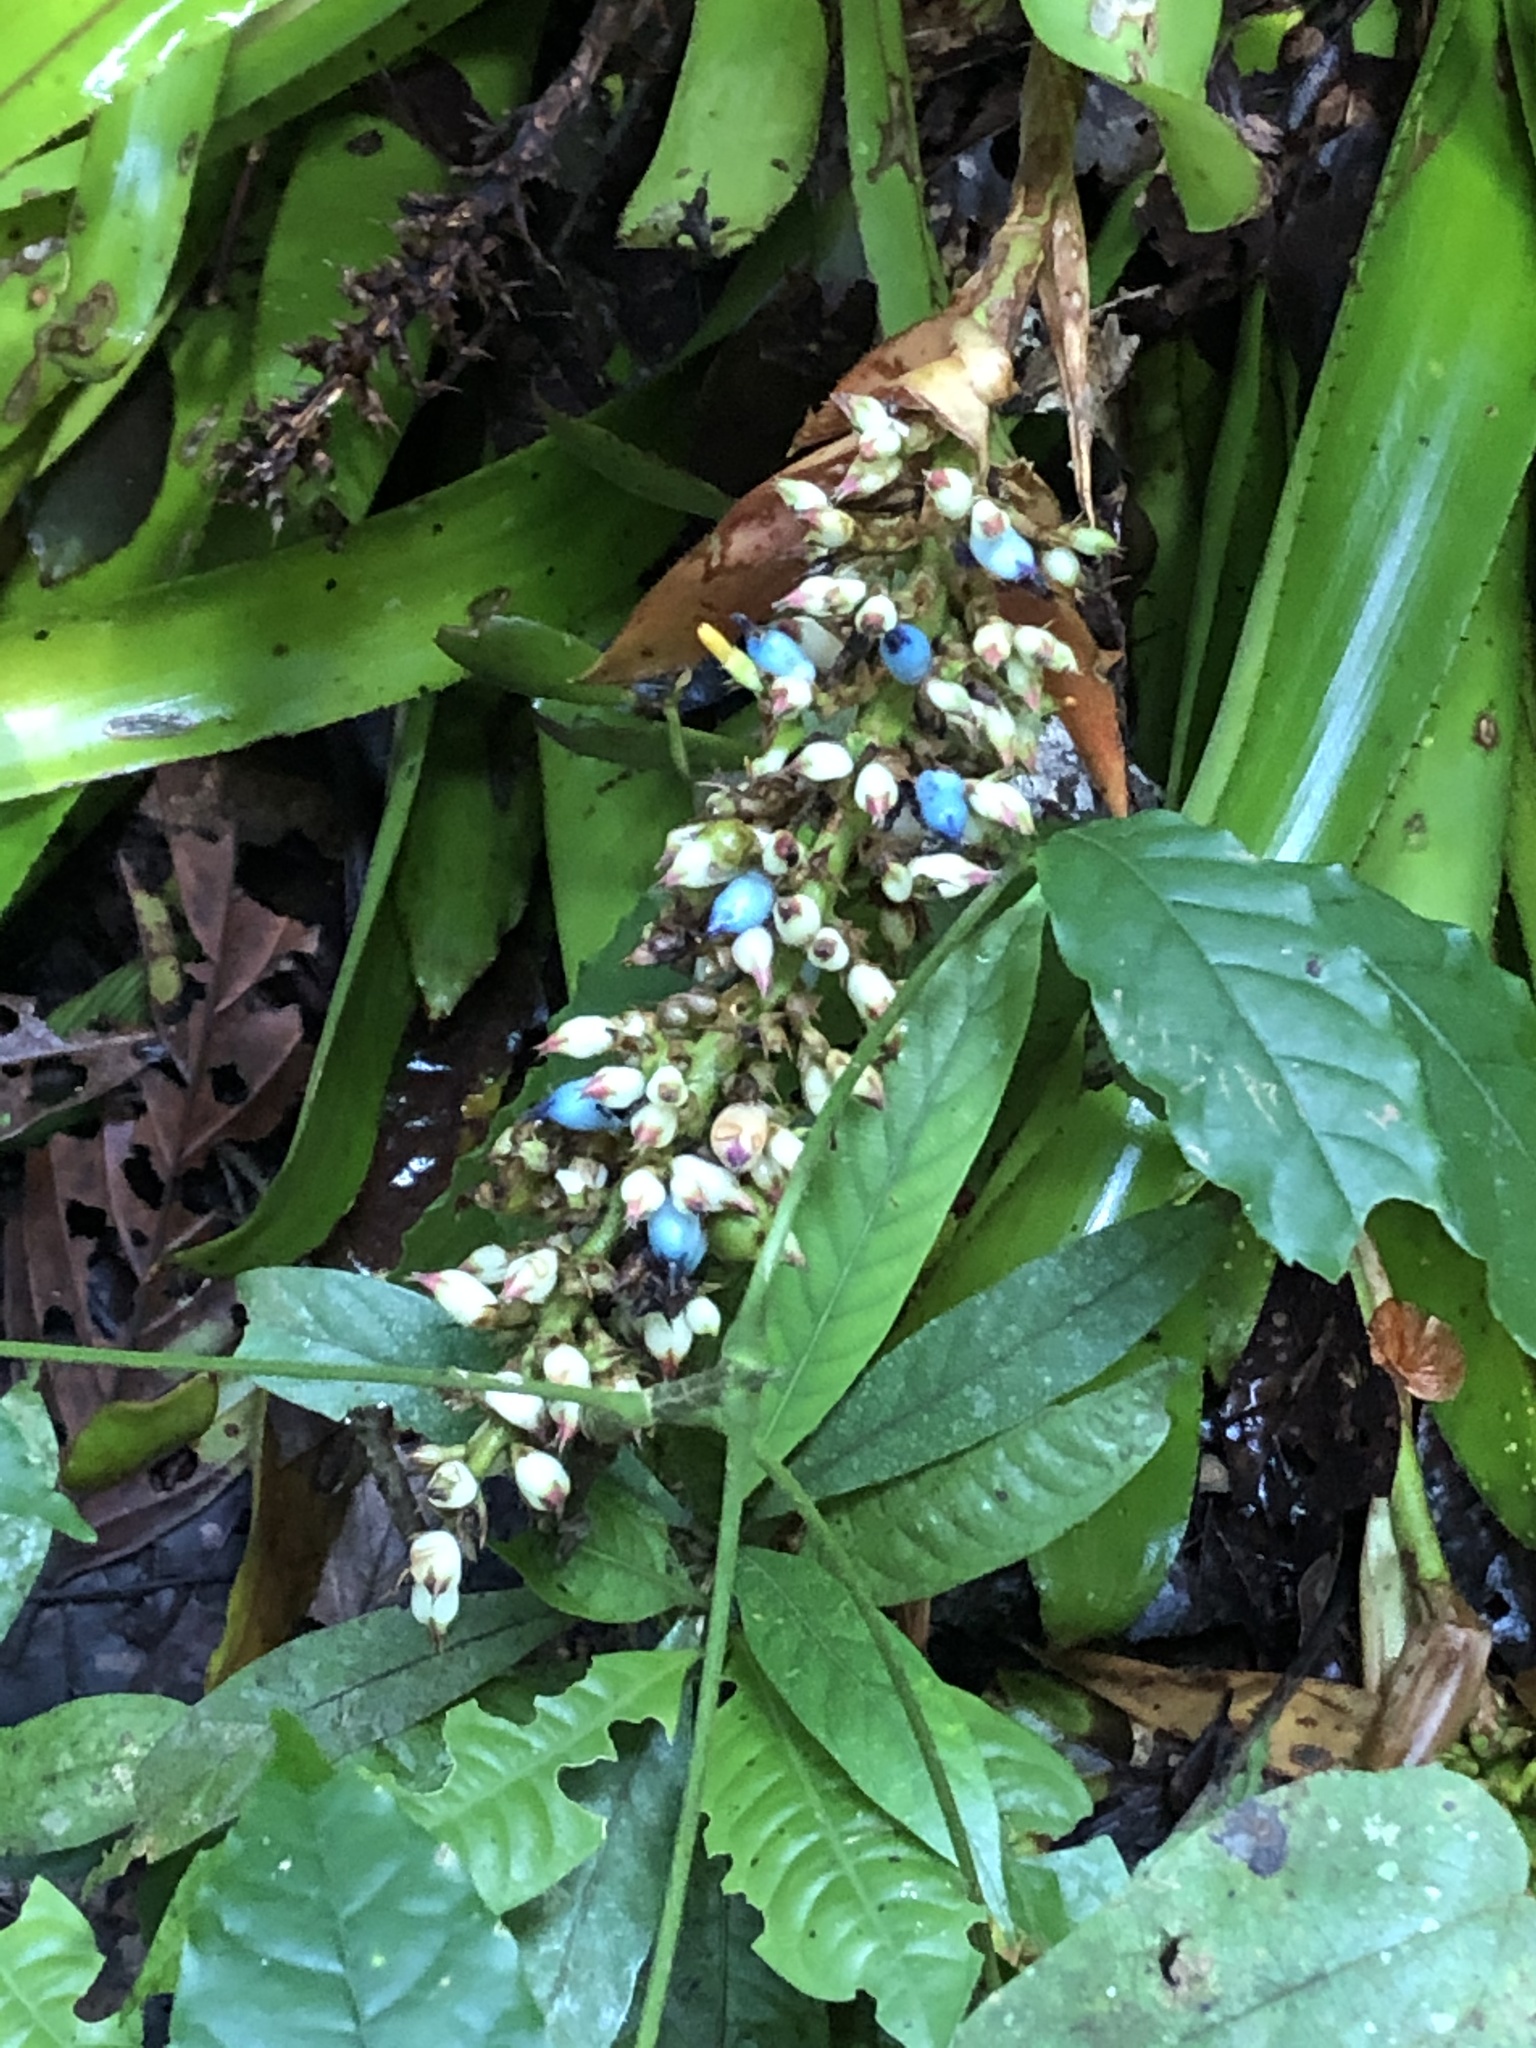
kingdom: Plantae
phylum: Tracheophyta
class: Liliopsida
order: Poales
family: Bromeliaceae
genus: Aechmea
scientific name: Aechmea angustifolia
